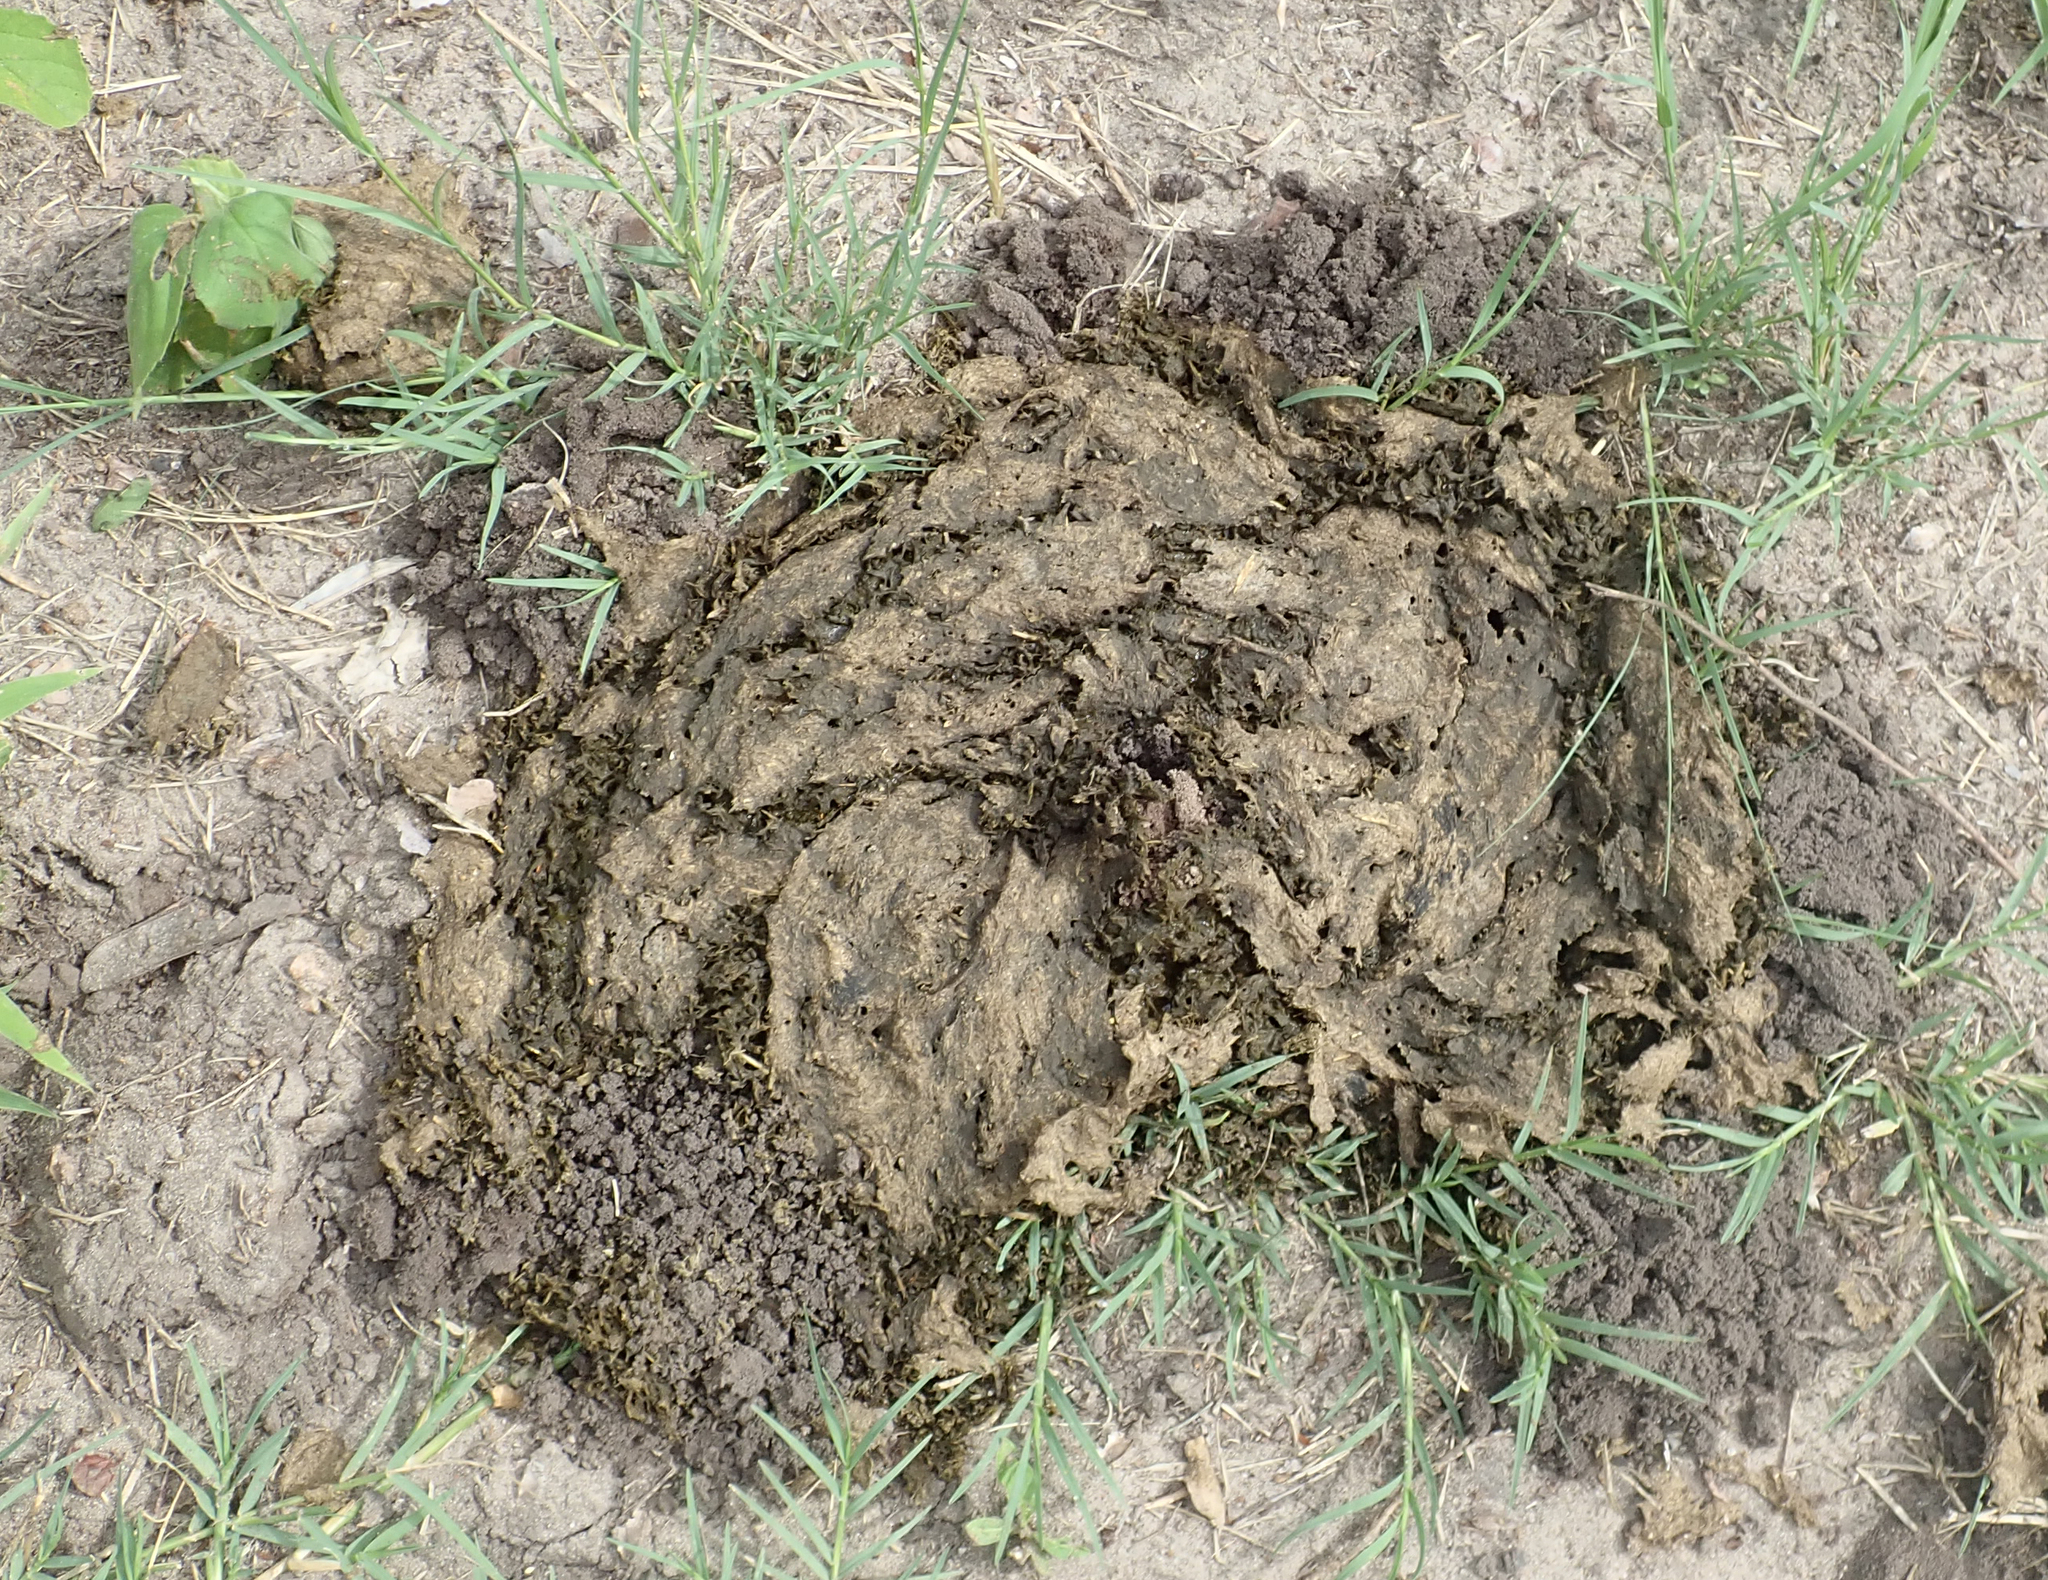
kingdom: Animalia
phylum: Chordata
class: Mammalia
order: Artiodactyla
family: Bovidae
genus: Syncerus
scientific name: Syncerus caffer
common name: African buffalo
